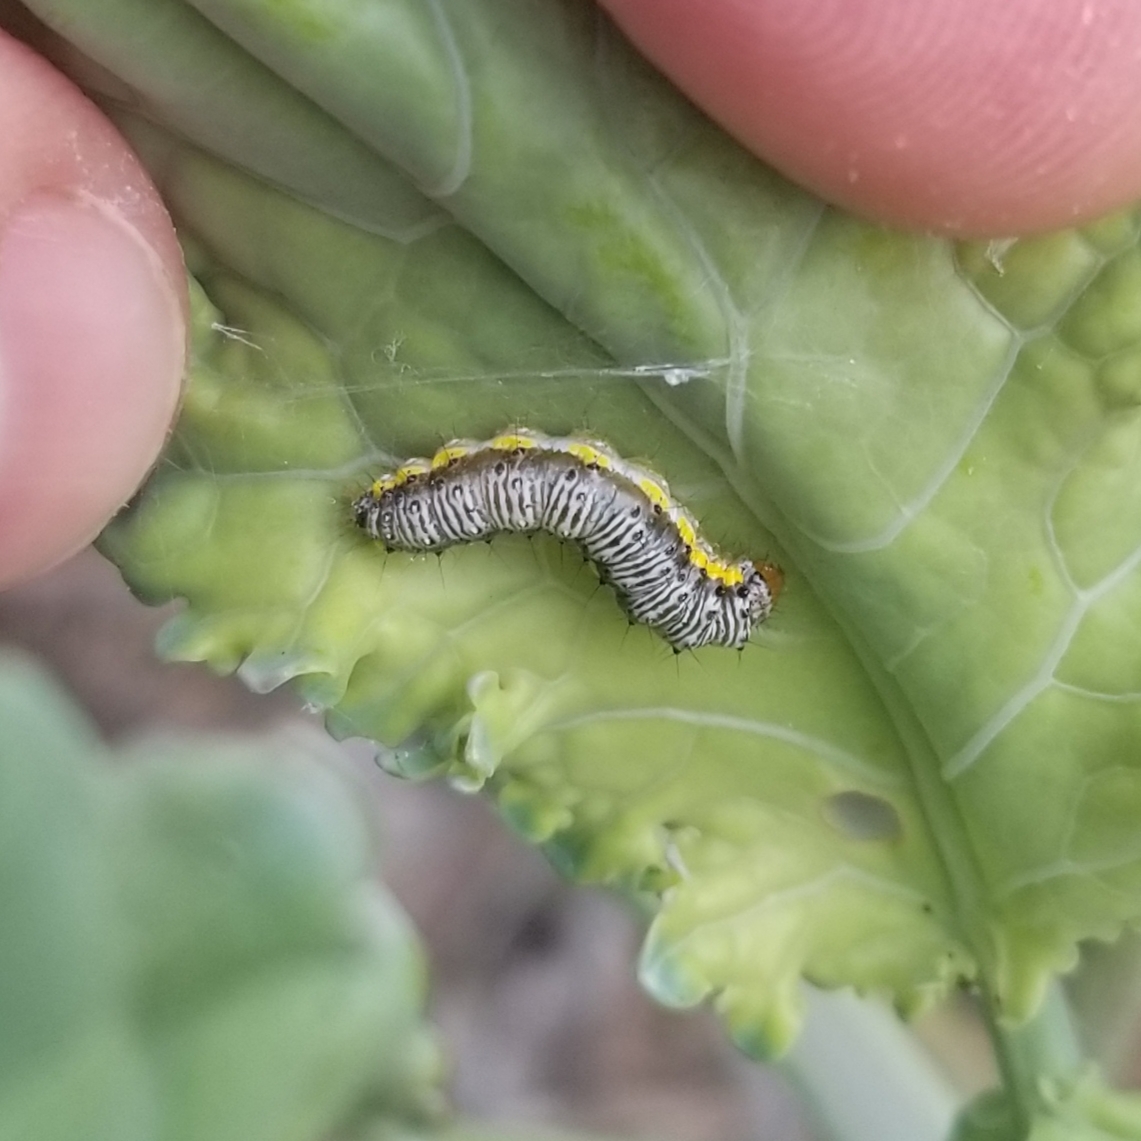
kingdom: Animalia
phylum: Arthropoda
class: Insecta
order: Lepidoptera
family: Crambidae
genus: Evergestis
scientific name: Evergestis rimosalis
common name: Cross-striped cabbageworm moth
